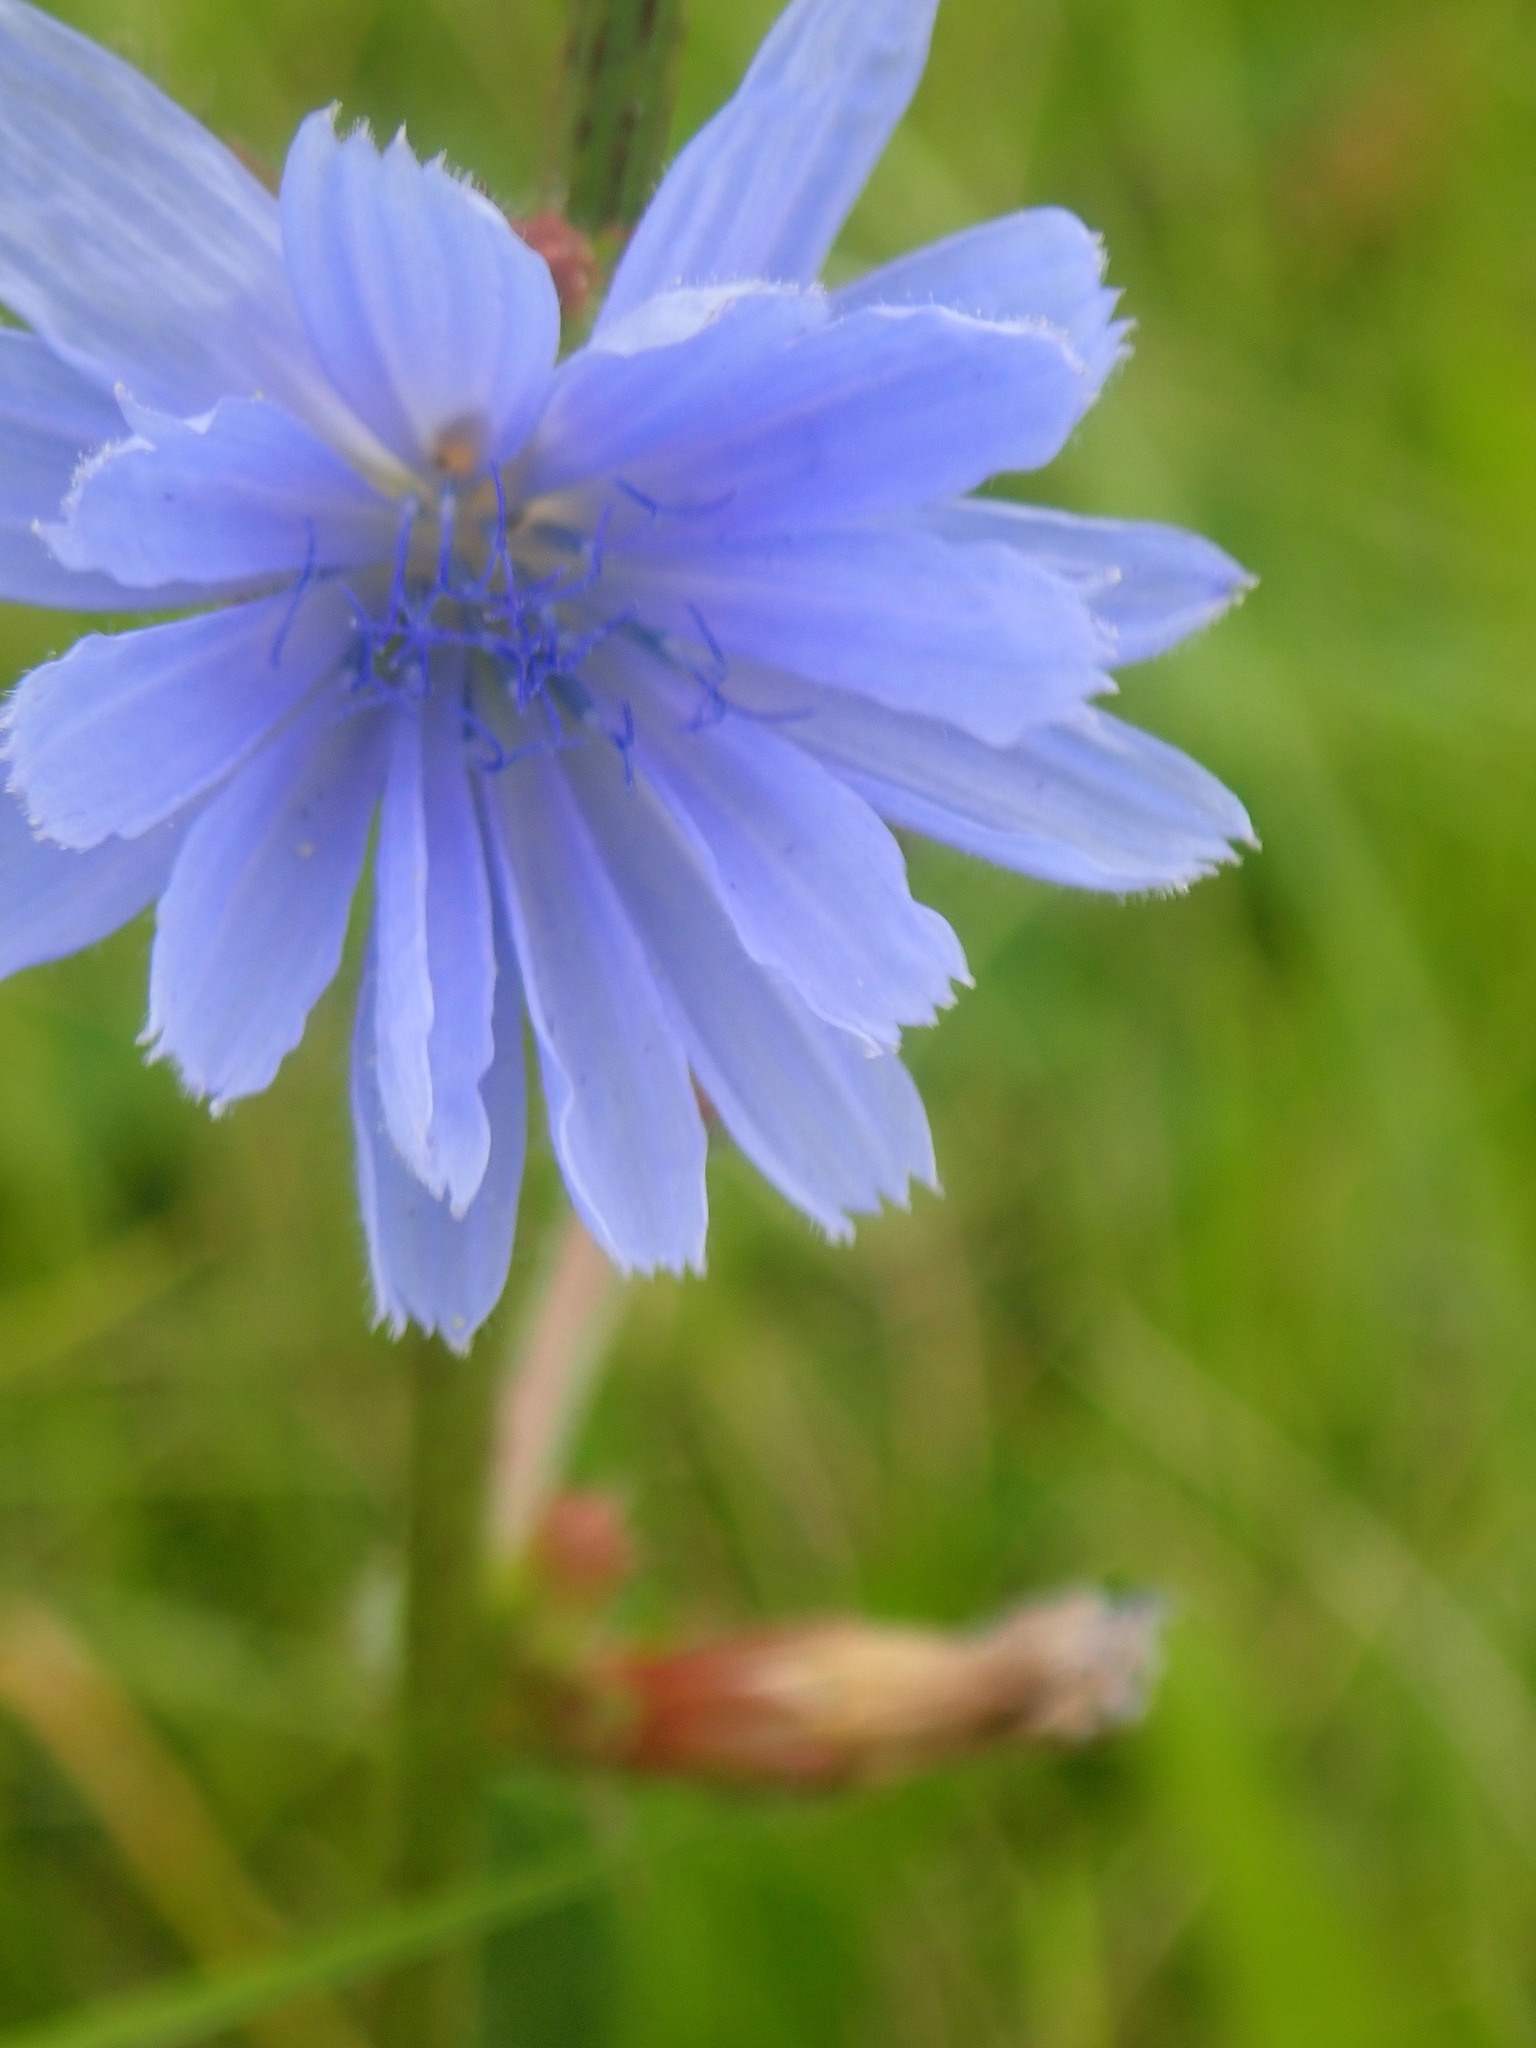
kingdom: Plantae
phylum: Tracheophyta
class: Magnoliopsida
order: Asterales
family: Asteraceae
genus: Cichorium
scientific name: Cichorium intybus
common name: Chicory
